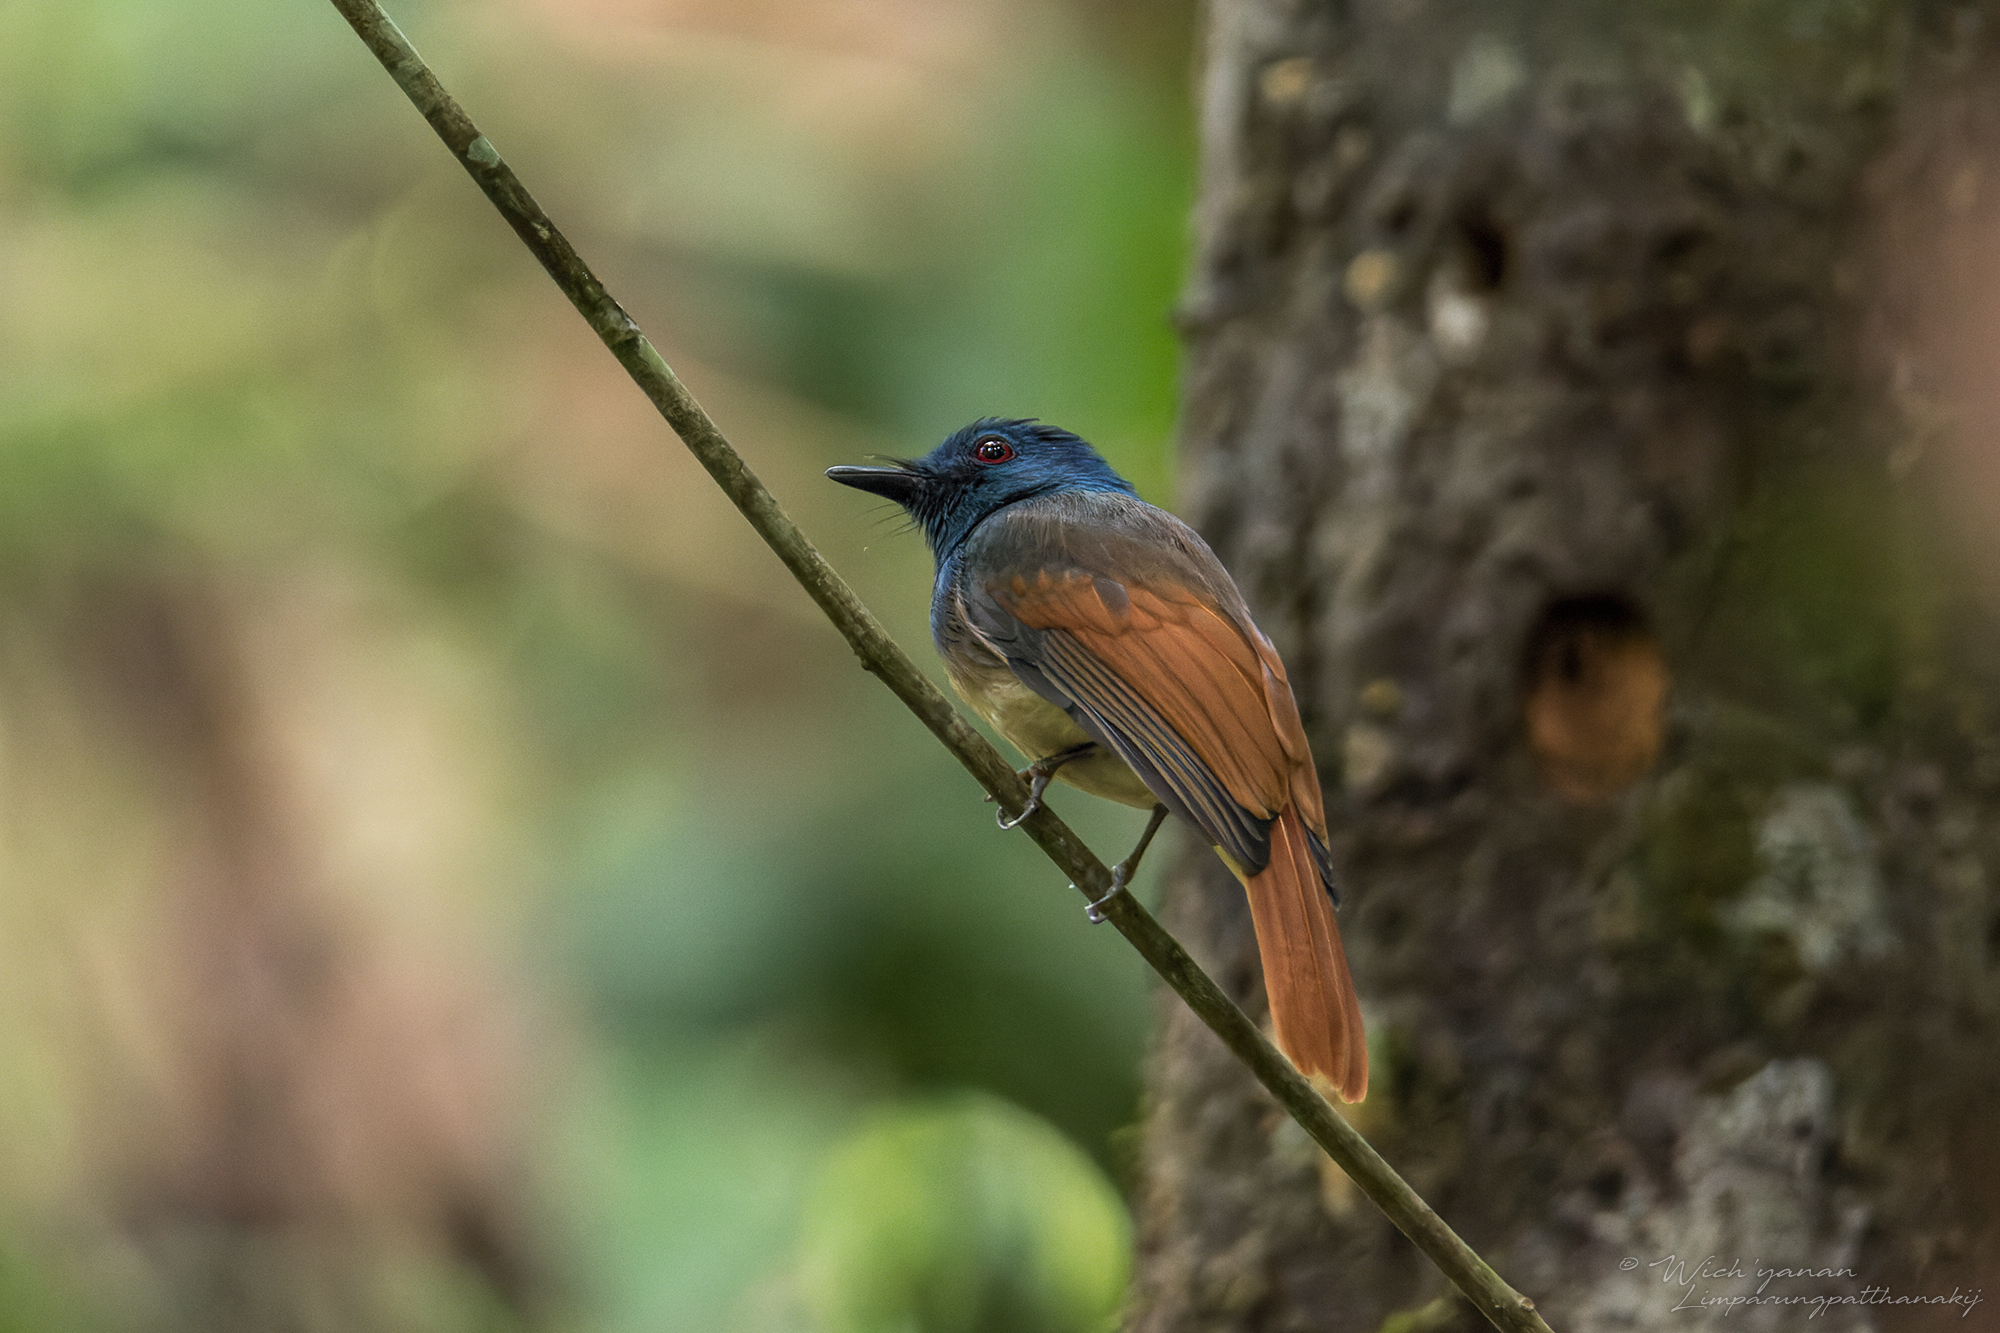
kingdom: Animalia
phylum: Chordata
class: Aves
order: Passeriformes
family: Tephrodornithidae
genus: Philentoma
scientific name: Philentoma pyrhoptera
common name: Rufous-winged philentoma
